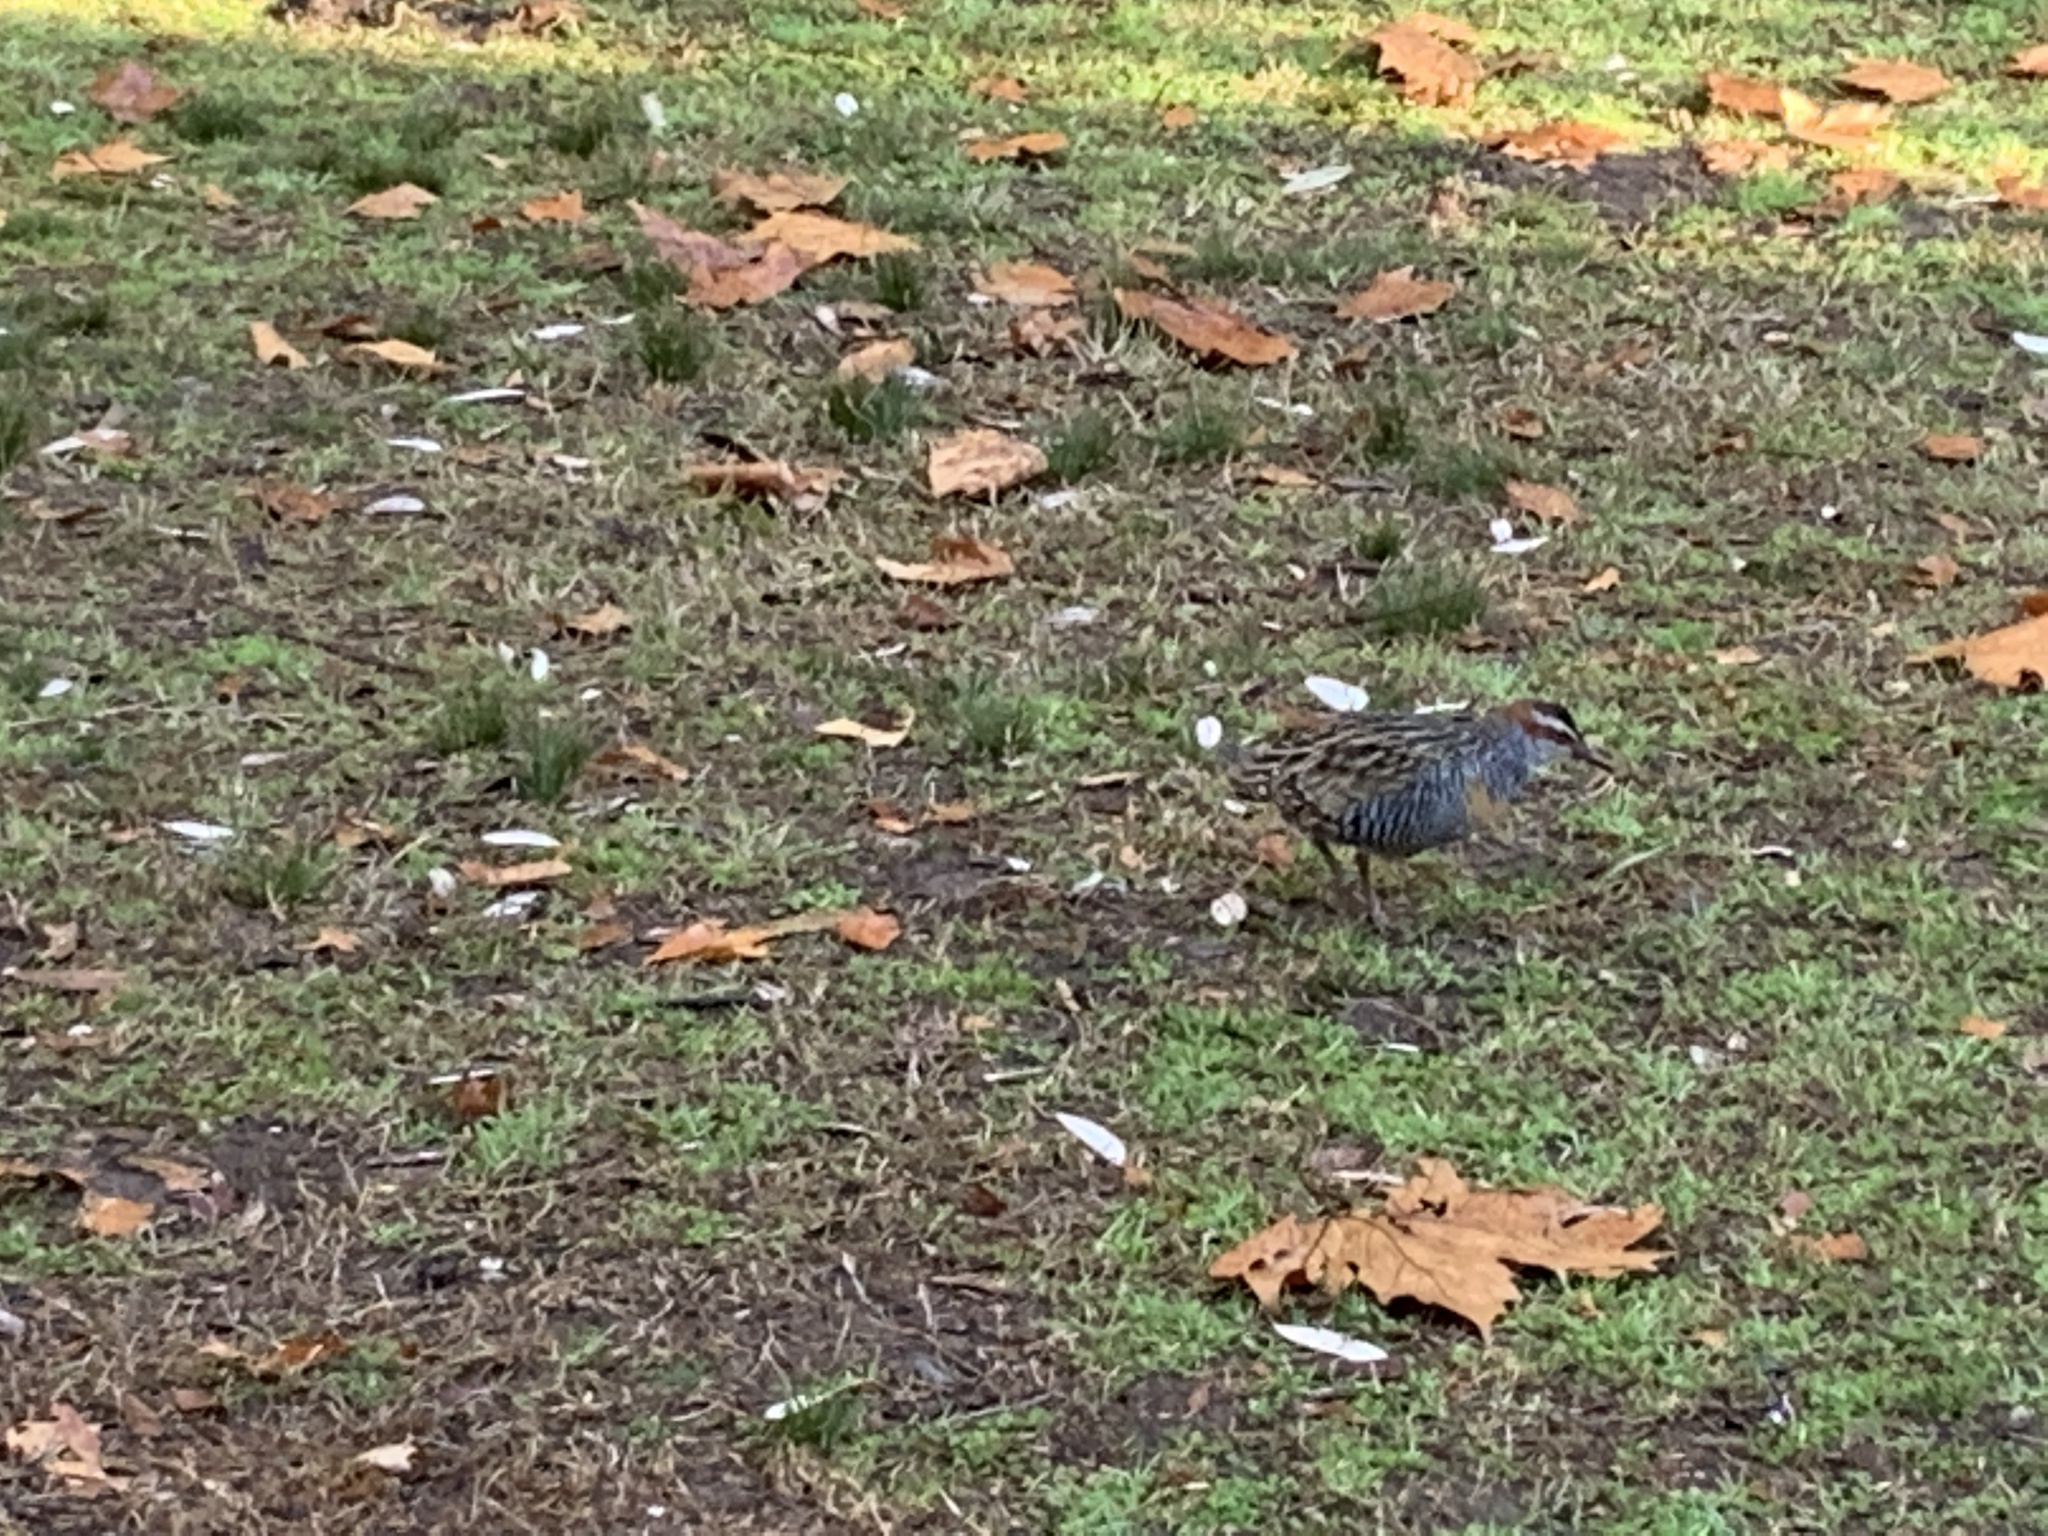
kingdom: Animalia
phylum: Chordata
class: Aves
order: Gruiformes
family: Rallidae
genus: Gallirallus
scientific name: Gallirallus philippensis
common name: Buff-banded rail
